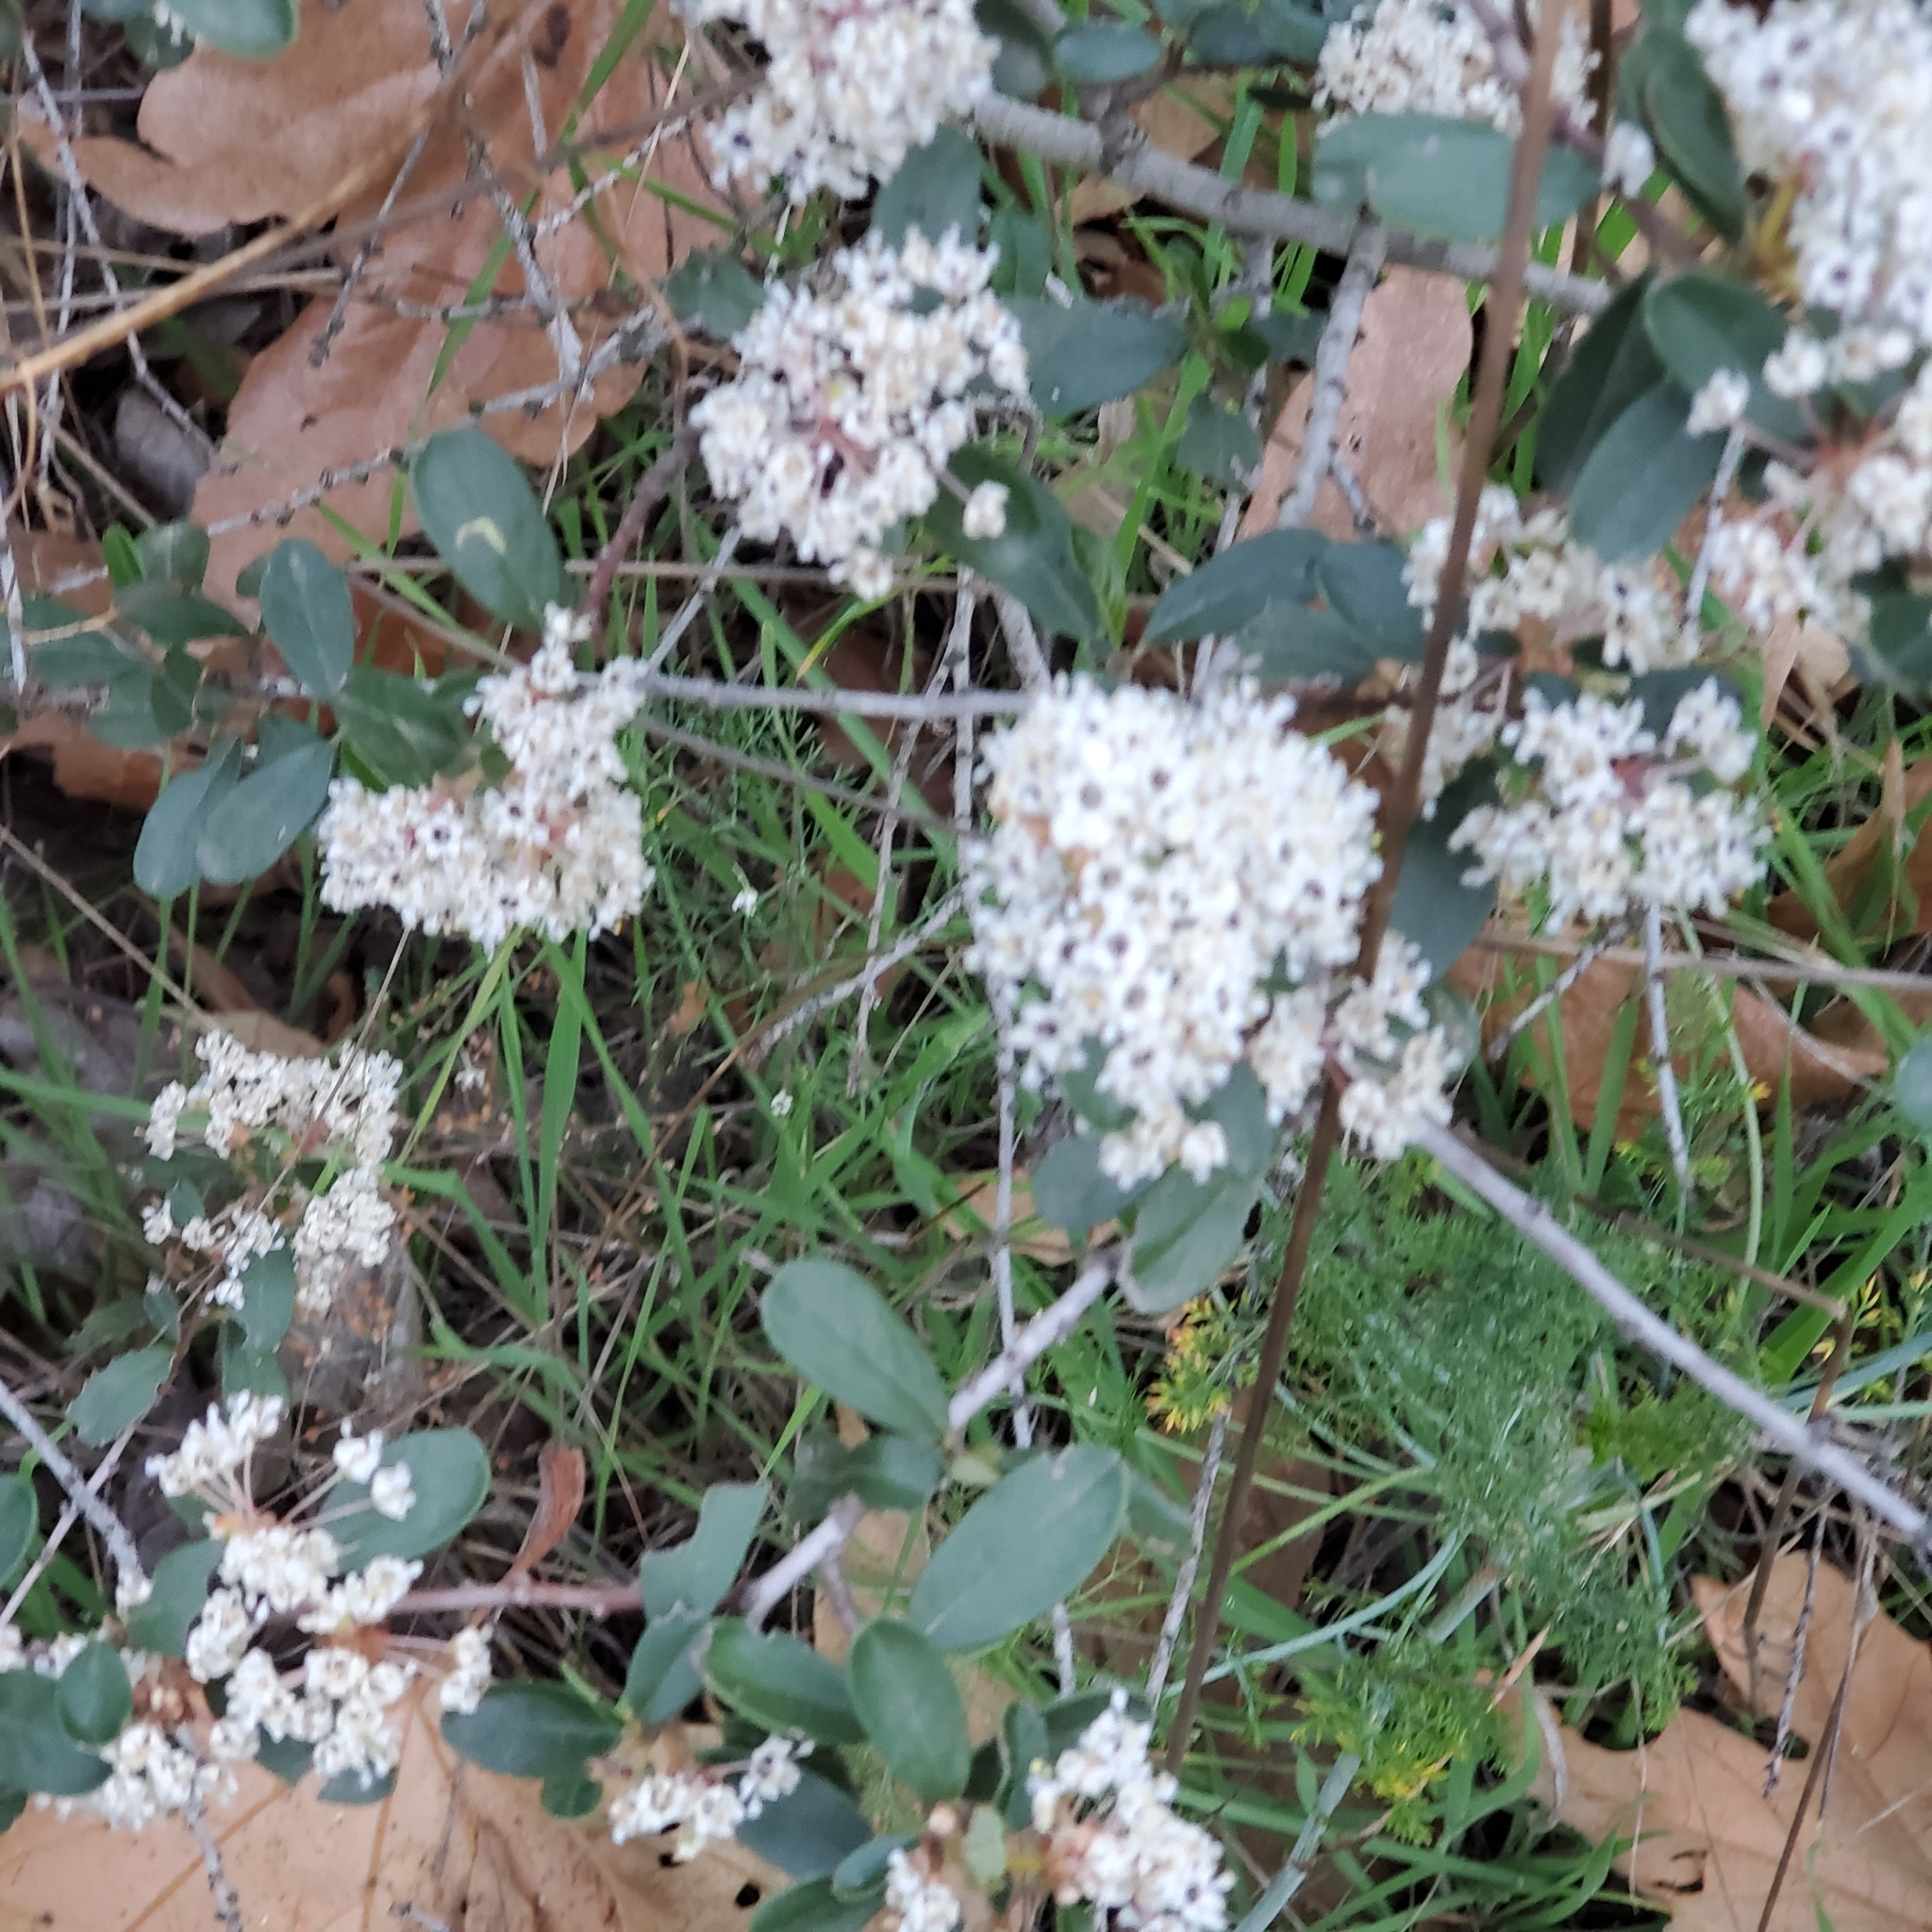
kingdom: Plantae
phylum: Tracheophyta
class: Magnoliopsida
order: Rosales
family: Rhamnaceae
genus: Ceanothus
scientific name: Ceanothus megacarpus
